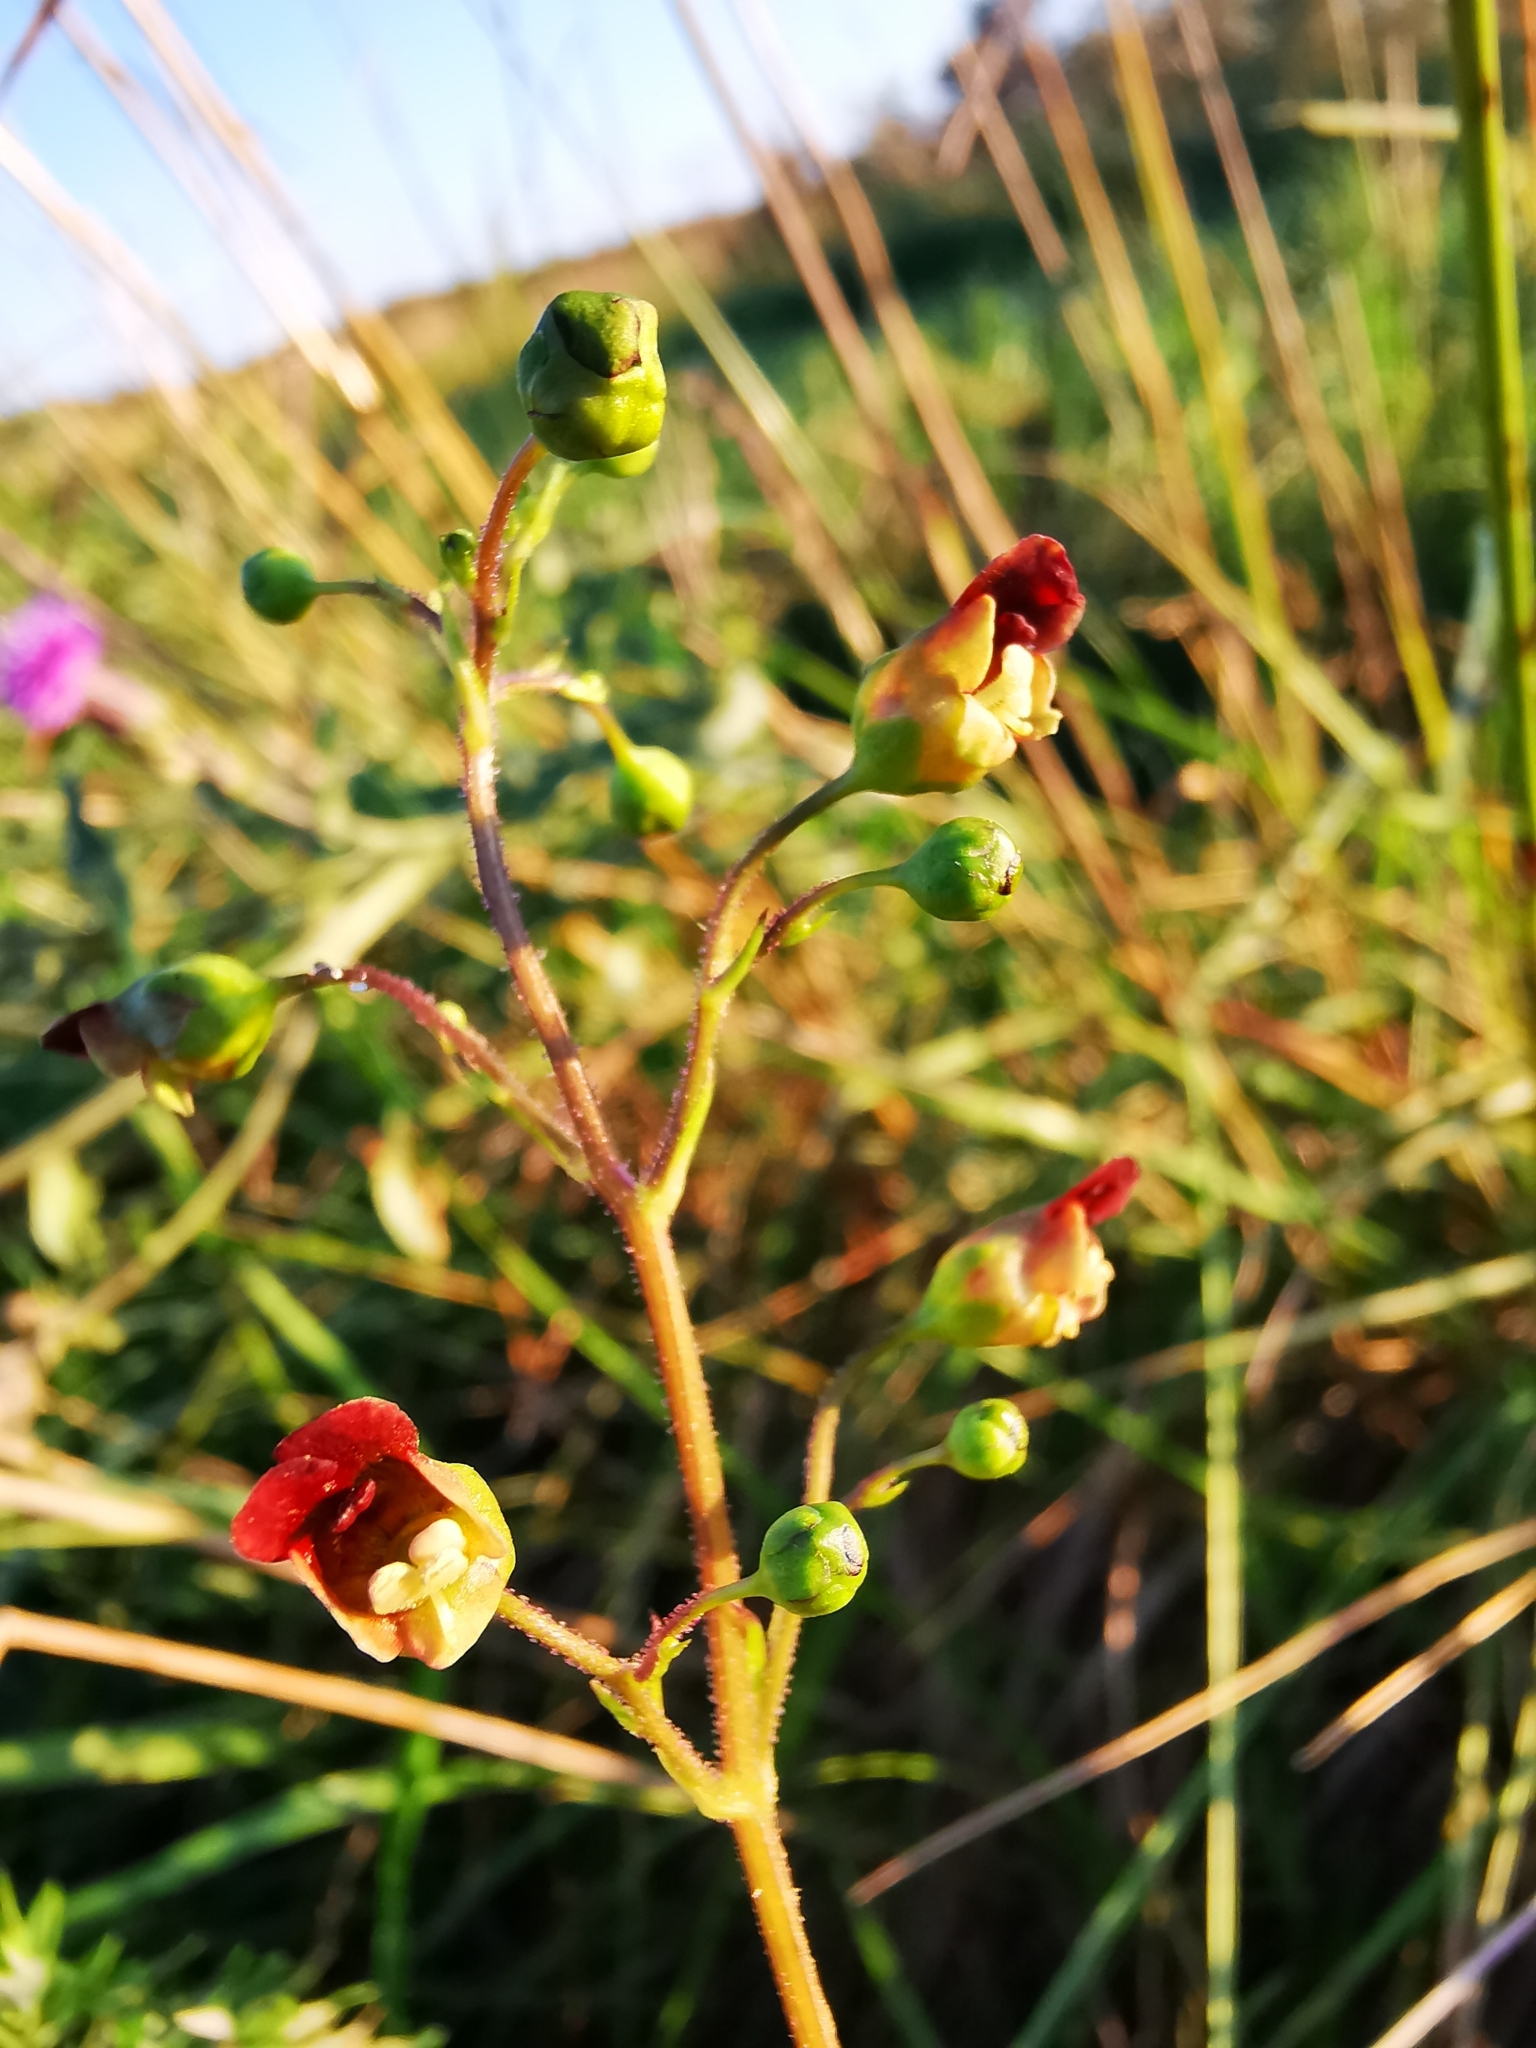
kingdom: Plantae
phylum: Tracheophyta
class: Magnoliopsida
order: Lamiales
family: Scrophulariaceae
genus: Scrophularia
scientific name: Scrophularia nodosa
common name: Common figwort
